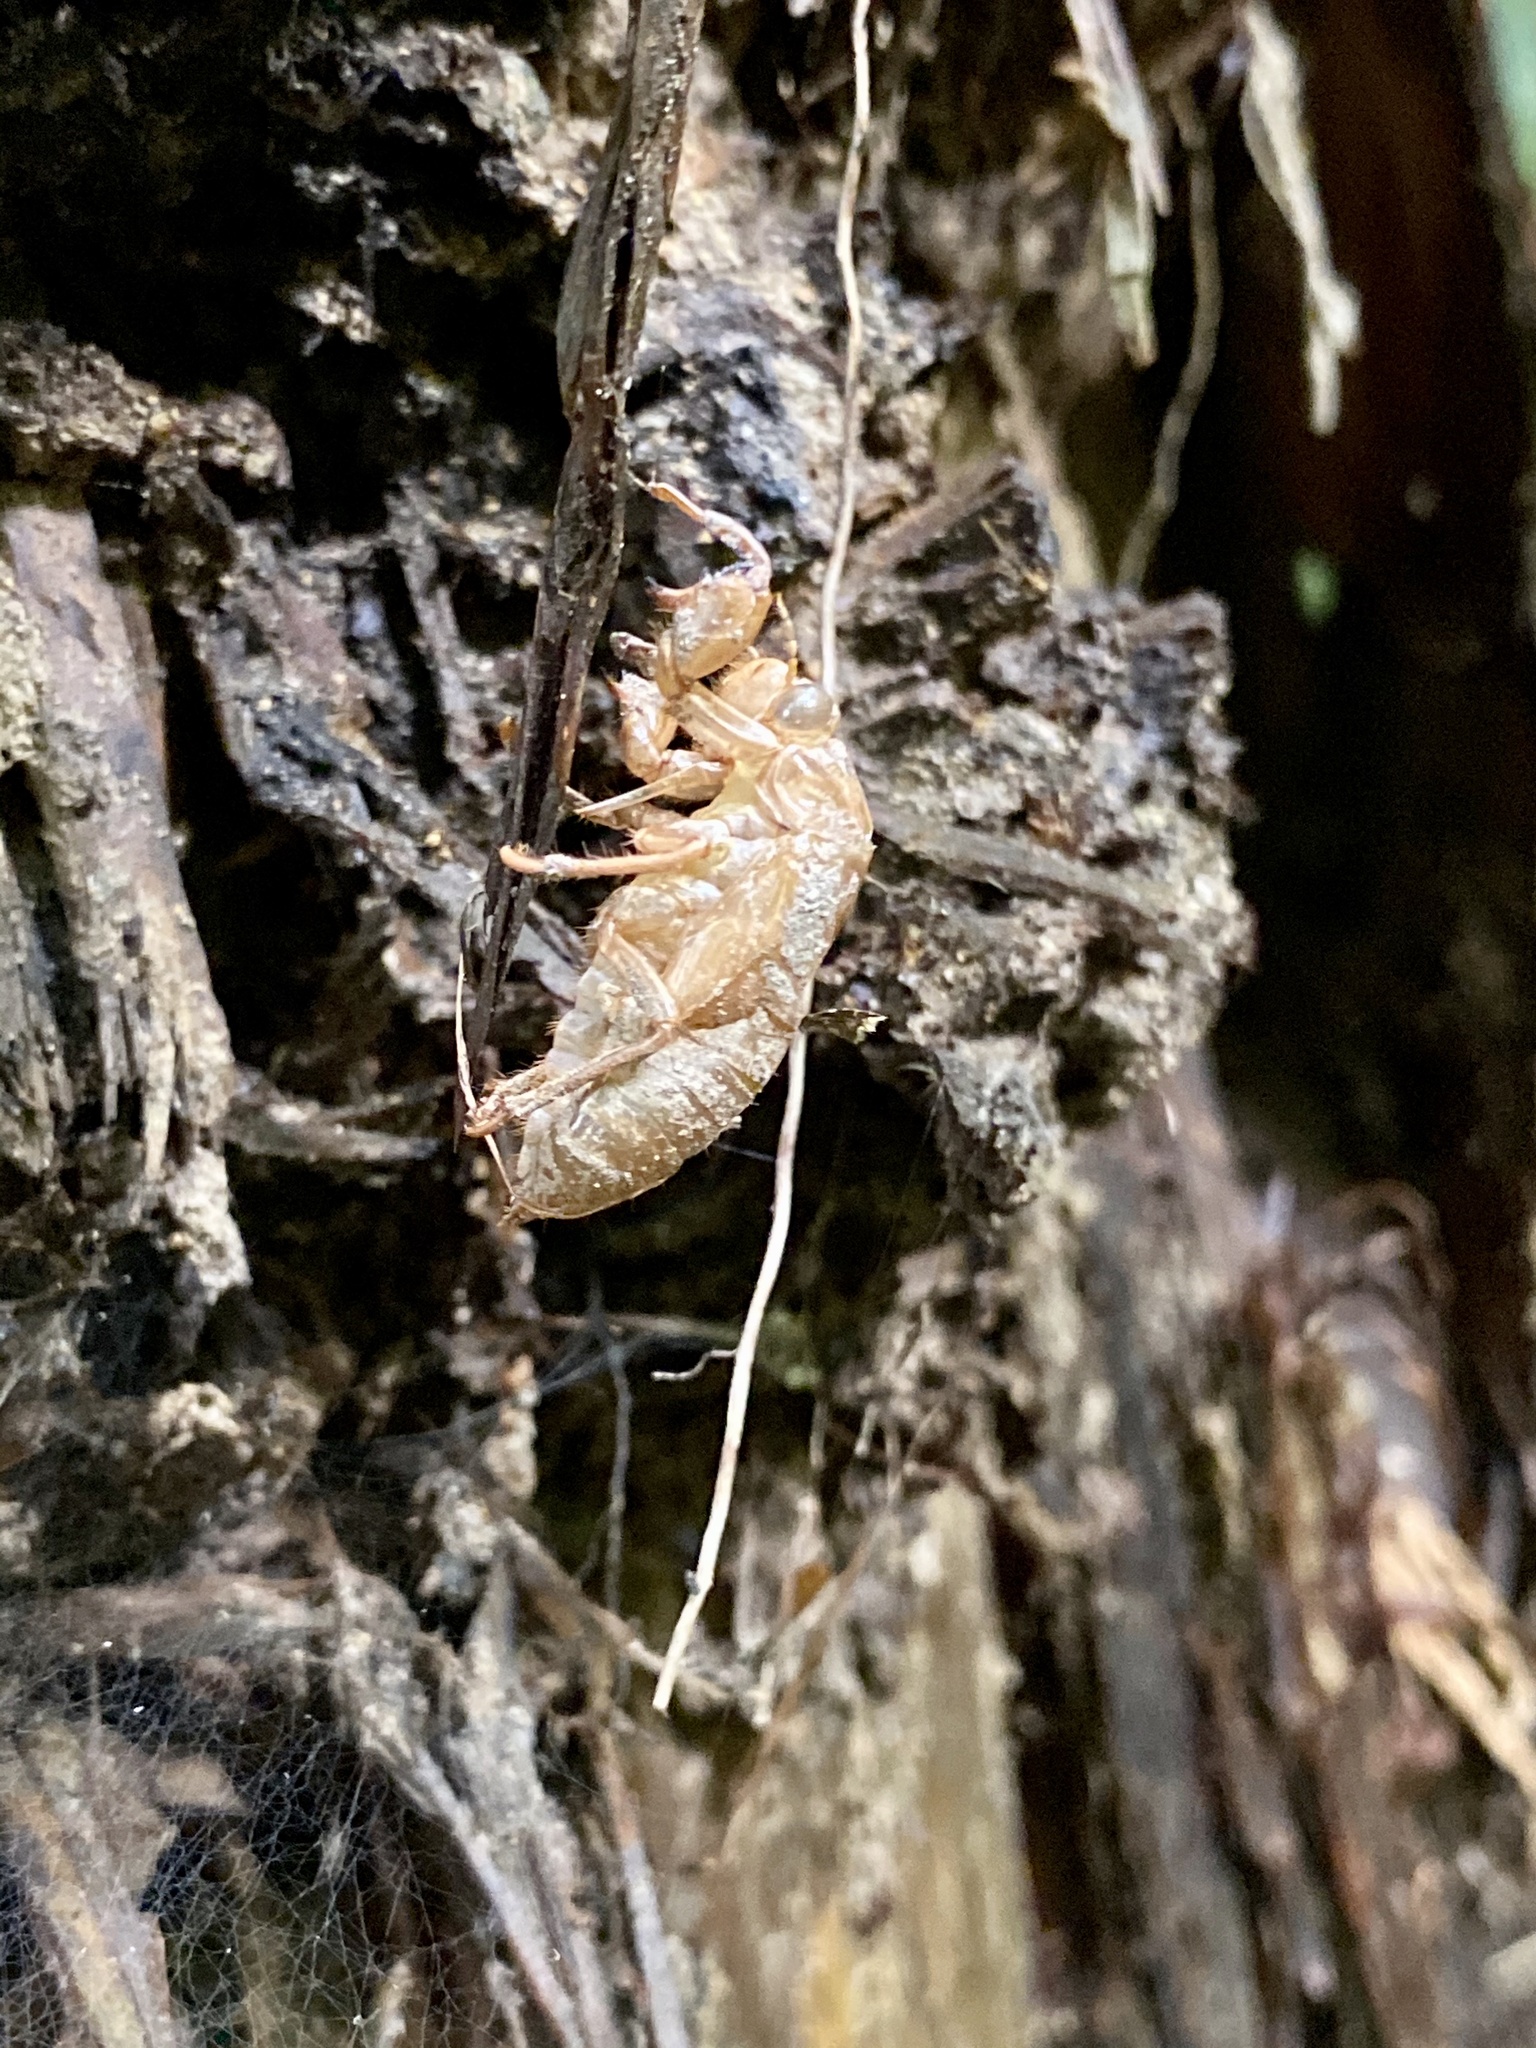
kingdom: Animalia
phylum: Arthropoda
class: Insecta
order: Hemiptera
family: Cicadidae
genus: Tanna
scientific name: Tanna japonensis
